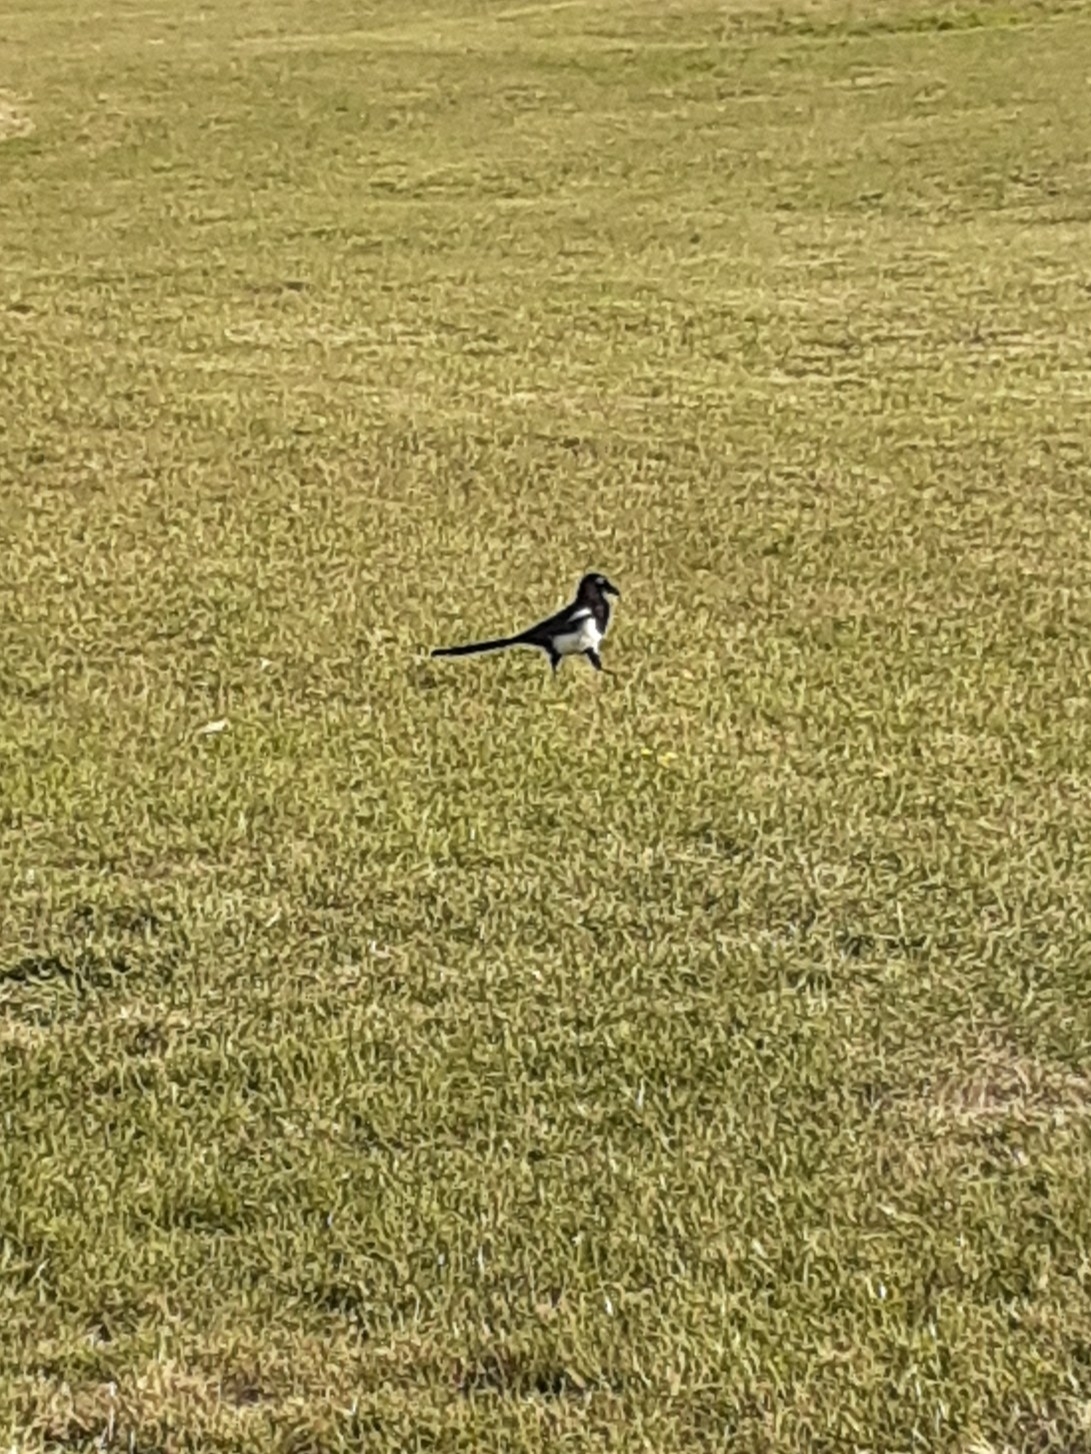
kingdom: Animalia
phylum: Chordata
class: Aves
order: Passeriformes
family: Corvidae
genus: Pica
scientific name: Pica pica
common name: Eurasian magpie
